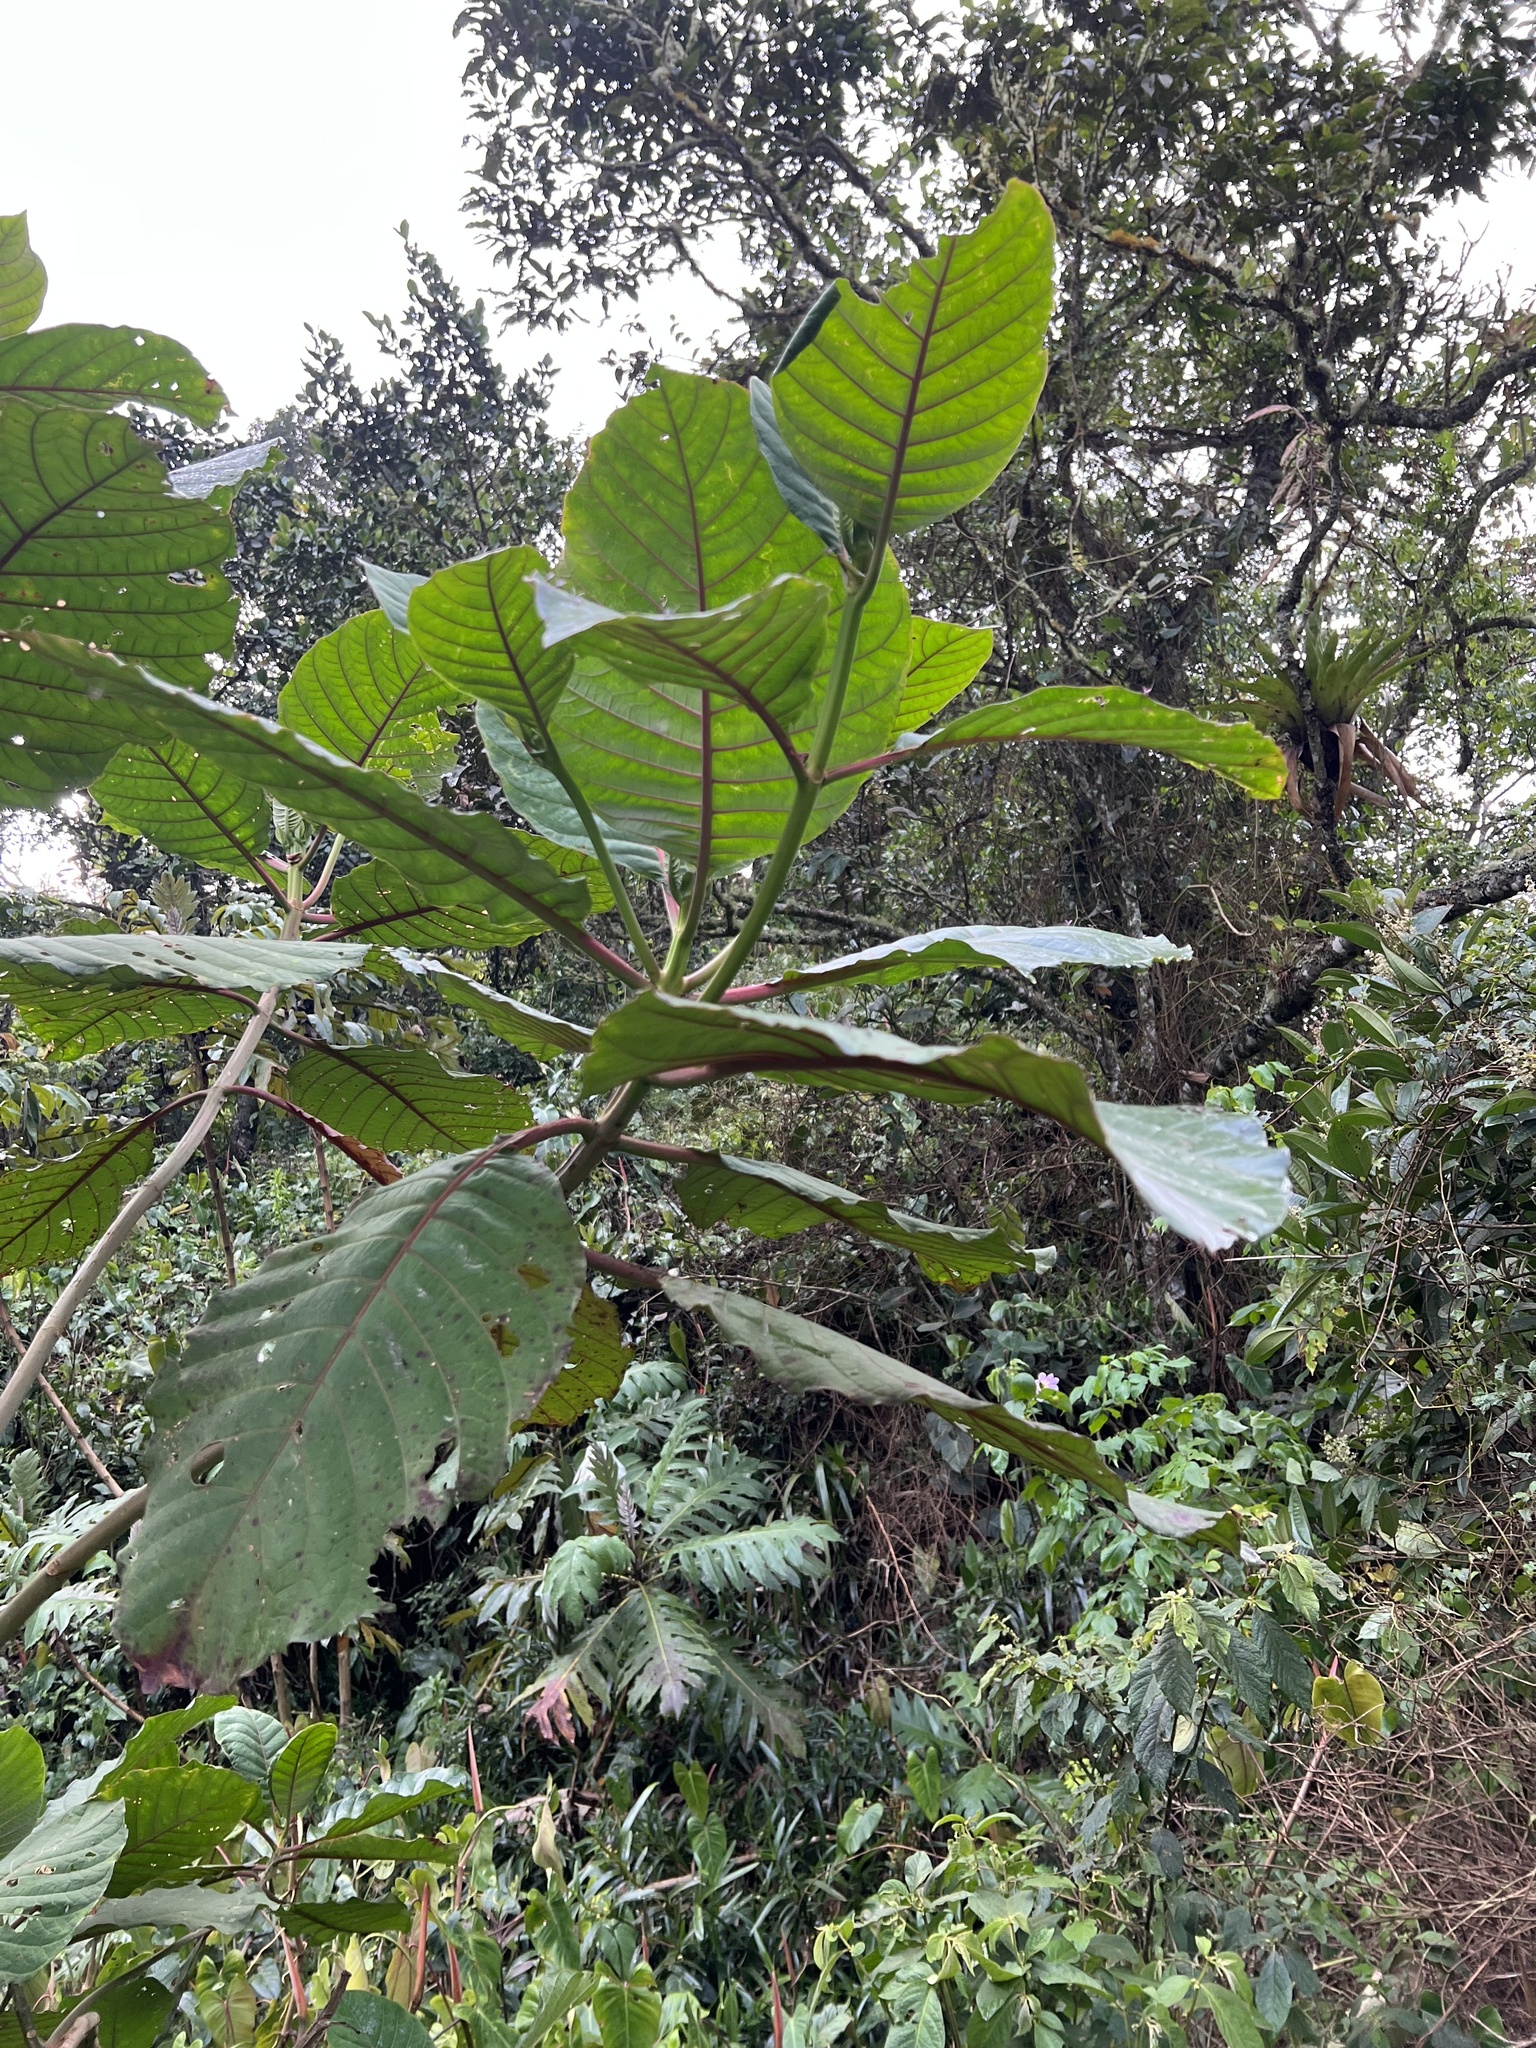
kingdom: Plantae
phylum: Tracheophyta
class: Magnoliopsida
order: Gentianales
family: Rubiaceae
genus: Cinchona
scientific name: Cinchona pubescens
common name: Quinine
